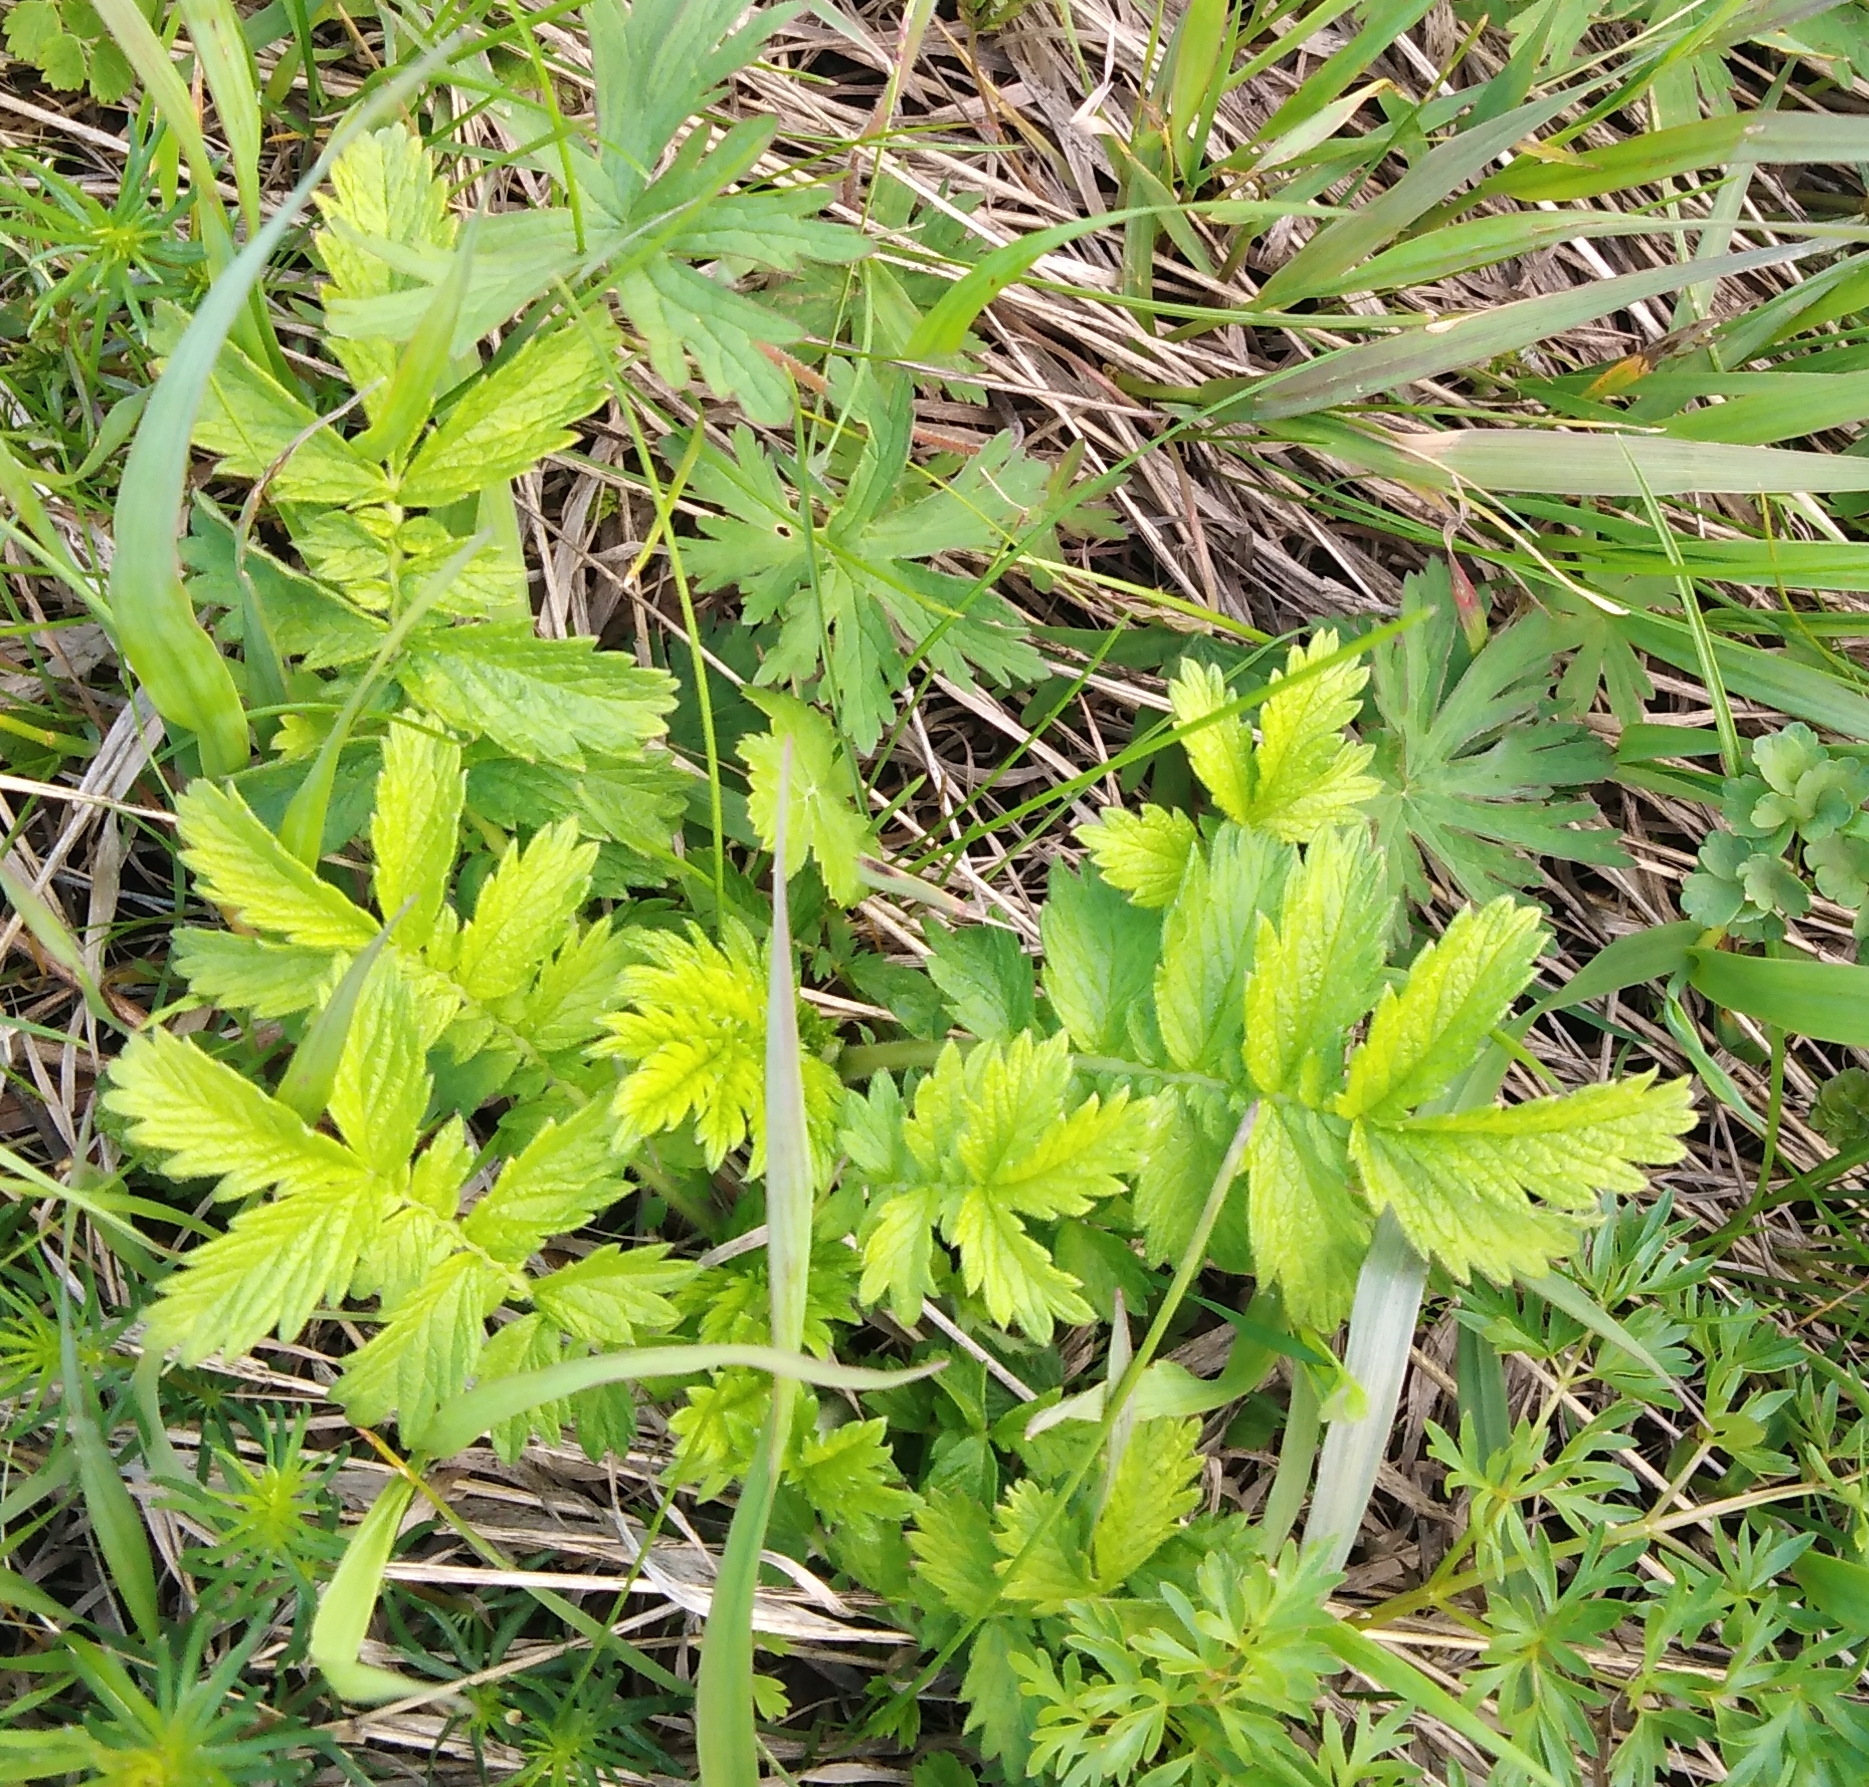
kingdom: Plantae
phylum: Tracheophyta
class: Magnoliopsida
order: Rosales
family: Rosaceae
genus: Agrimonia
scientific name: Agrimonia eupatoria
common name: Agrimony
